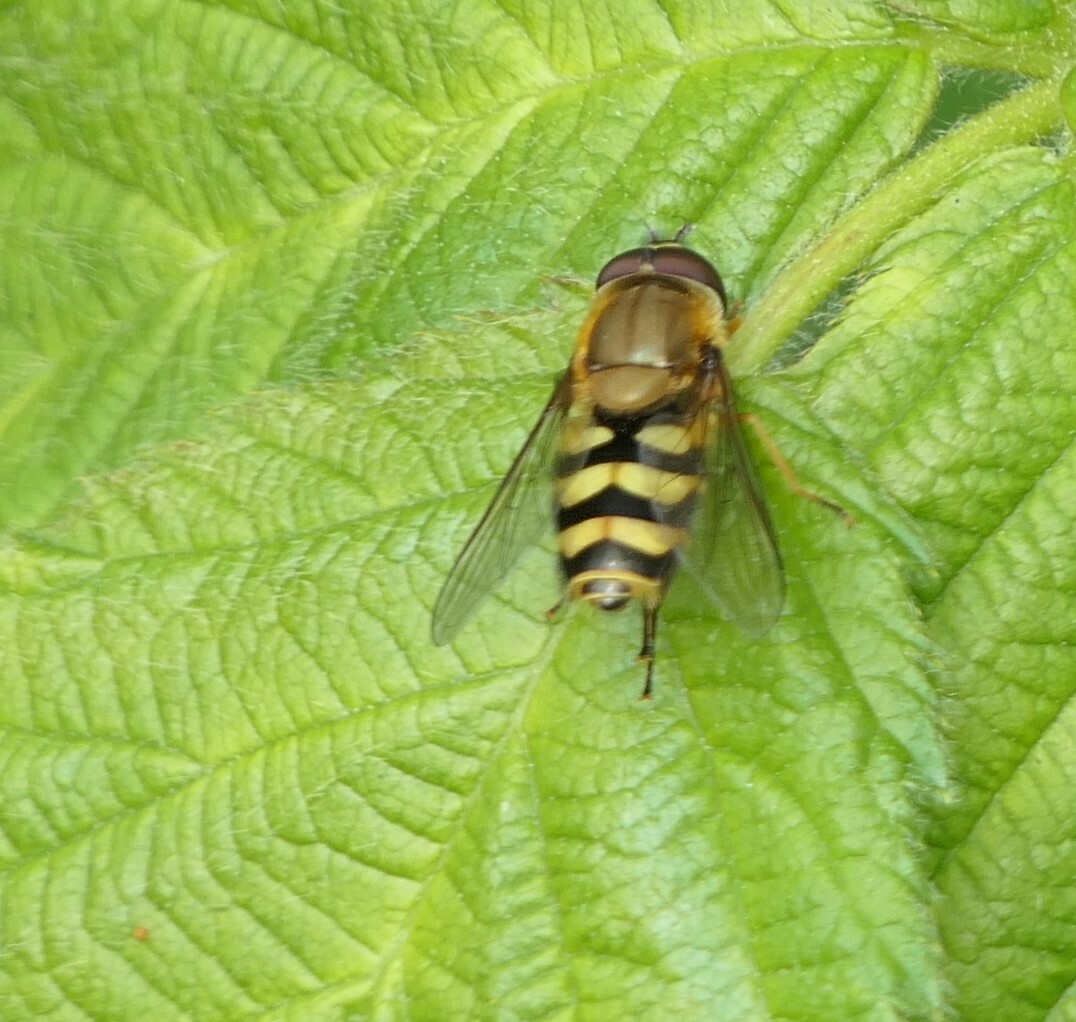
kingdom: Animalia
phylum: Arthropoda
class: Insecta
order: Diptera
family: Syrphidae
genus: Syrphus
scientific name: Syrphus
